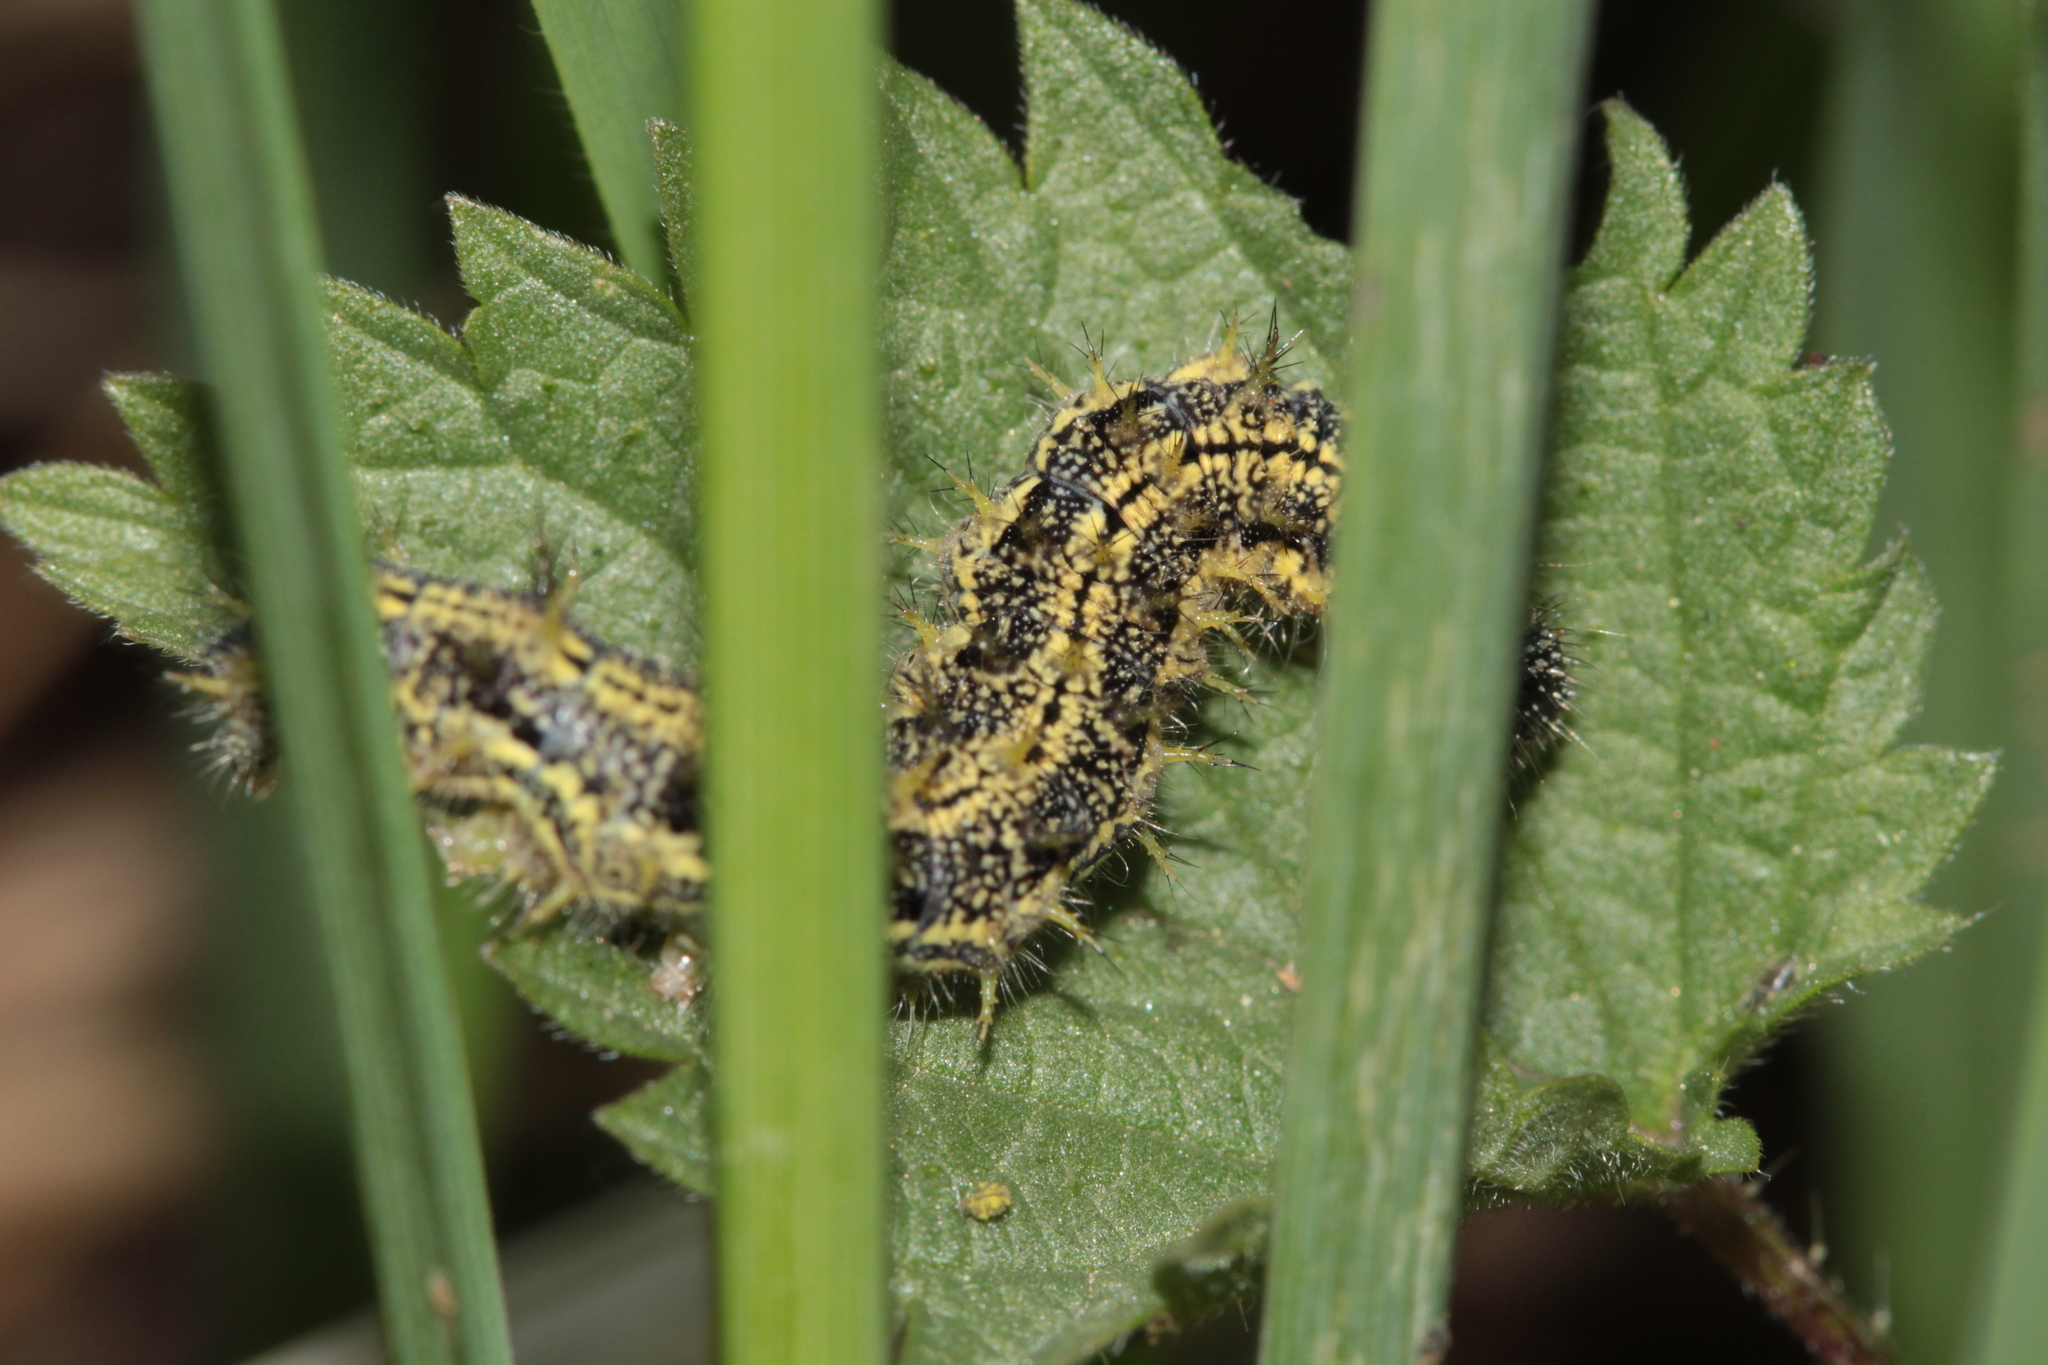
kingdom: Animalia
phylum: Arthropoda
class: Insecta
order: Lepidoptera
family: Nymphalidae
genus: Aglais
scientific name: Aglais urticae
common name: Small tortoiseshell
